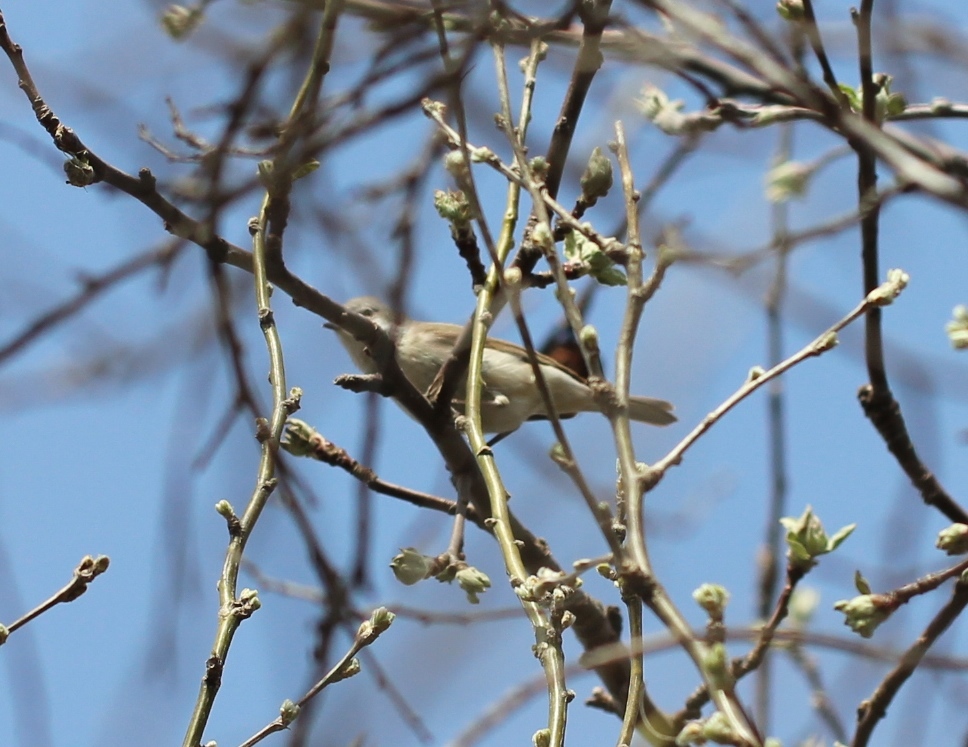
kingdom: Animalia
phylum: Chordata
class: Aves
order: Passeriformes
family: Sylviidae
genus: Sylvia
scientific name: Sylvia communis
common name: Common whitethroat
